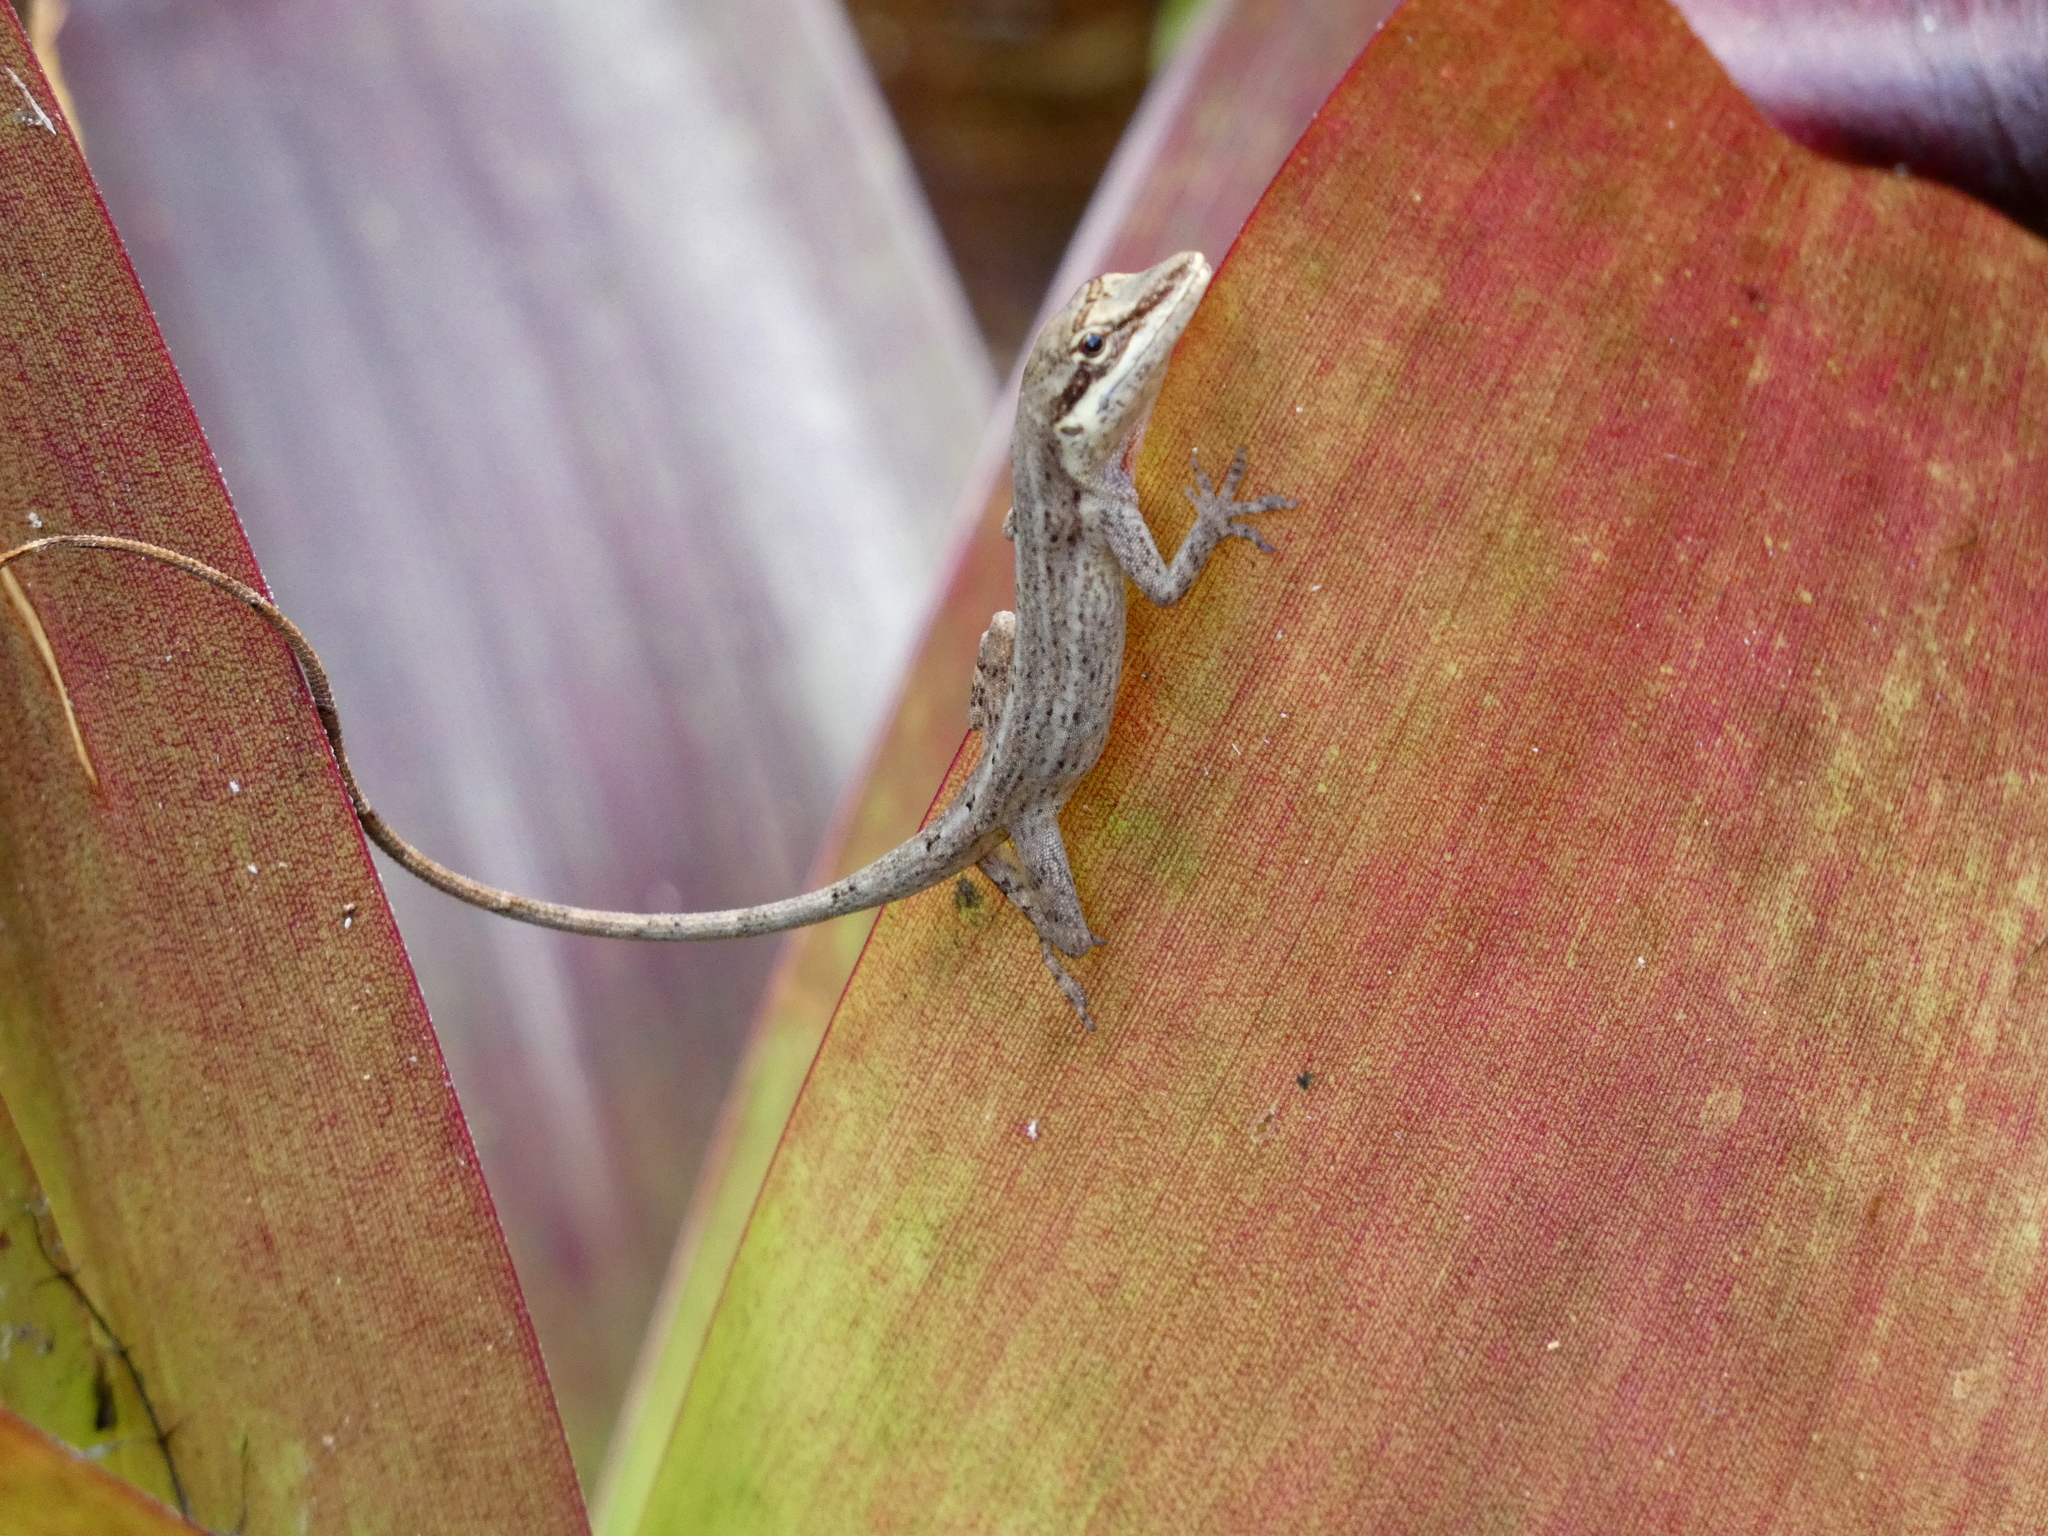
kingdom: Animalia
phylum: Chordata
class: Squamata
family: Dactyloidae
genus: Anolis
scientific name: Anolis kemptoni
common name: Kempton's anole
